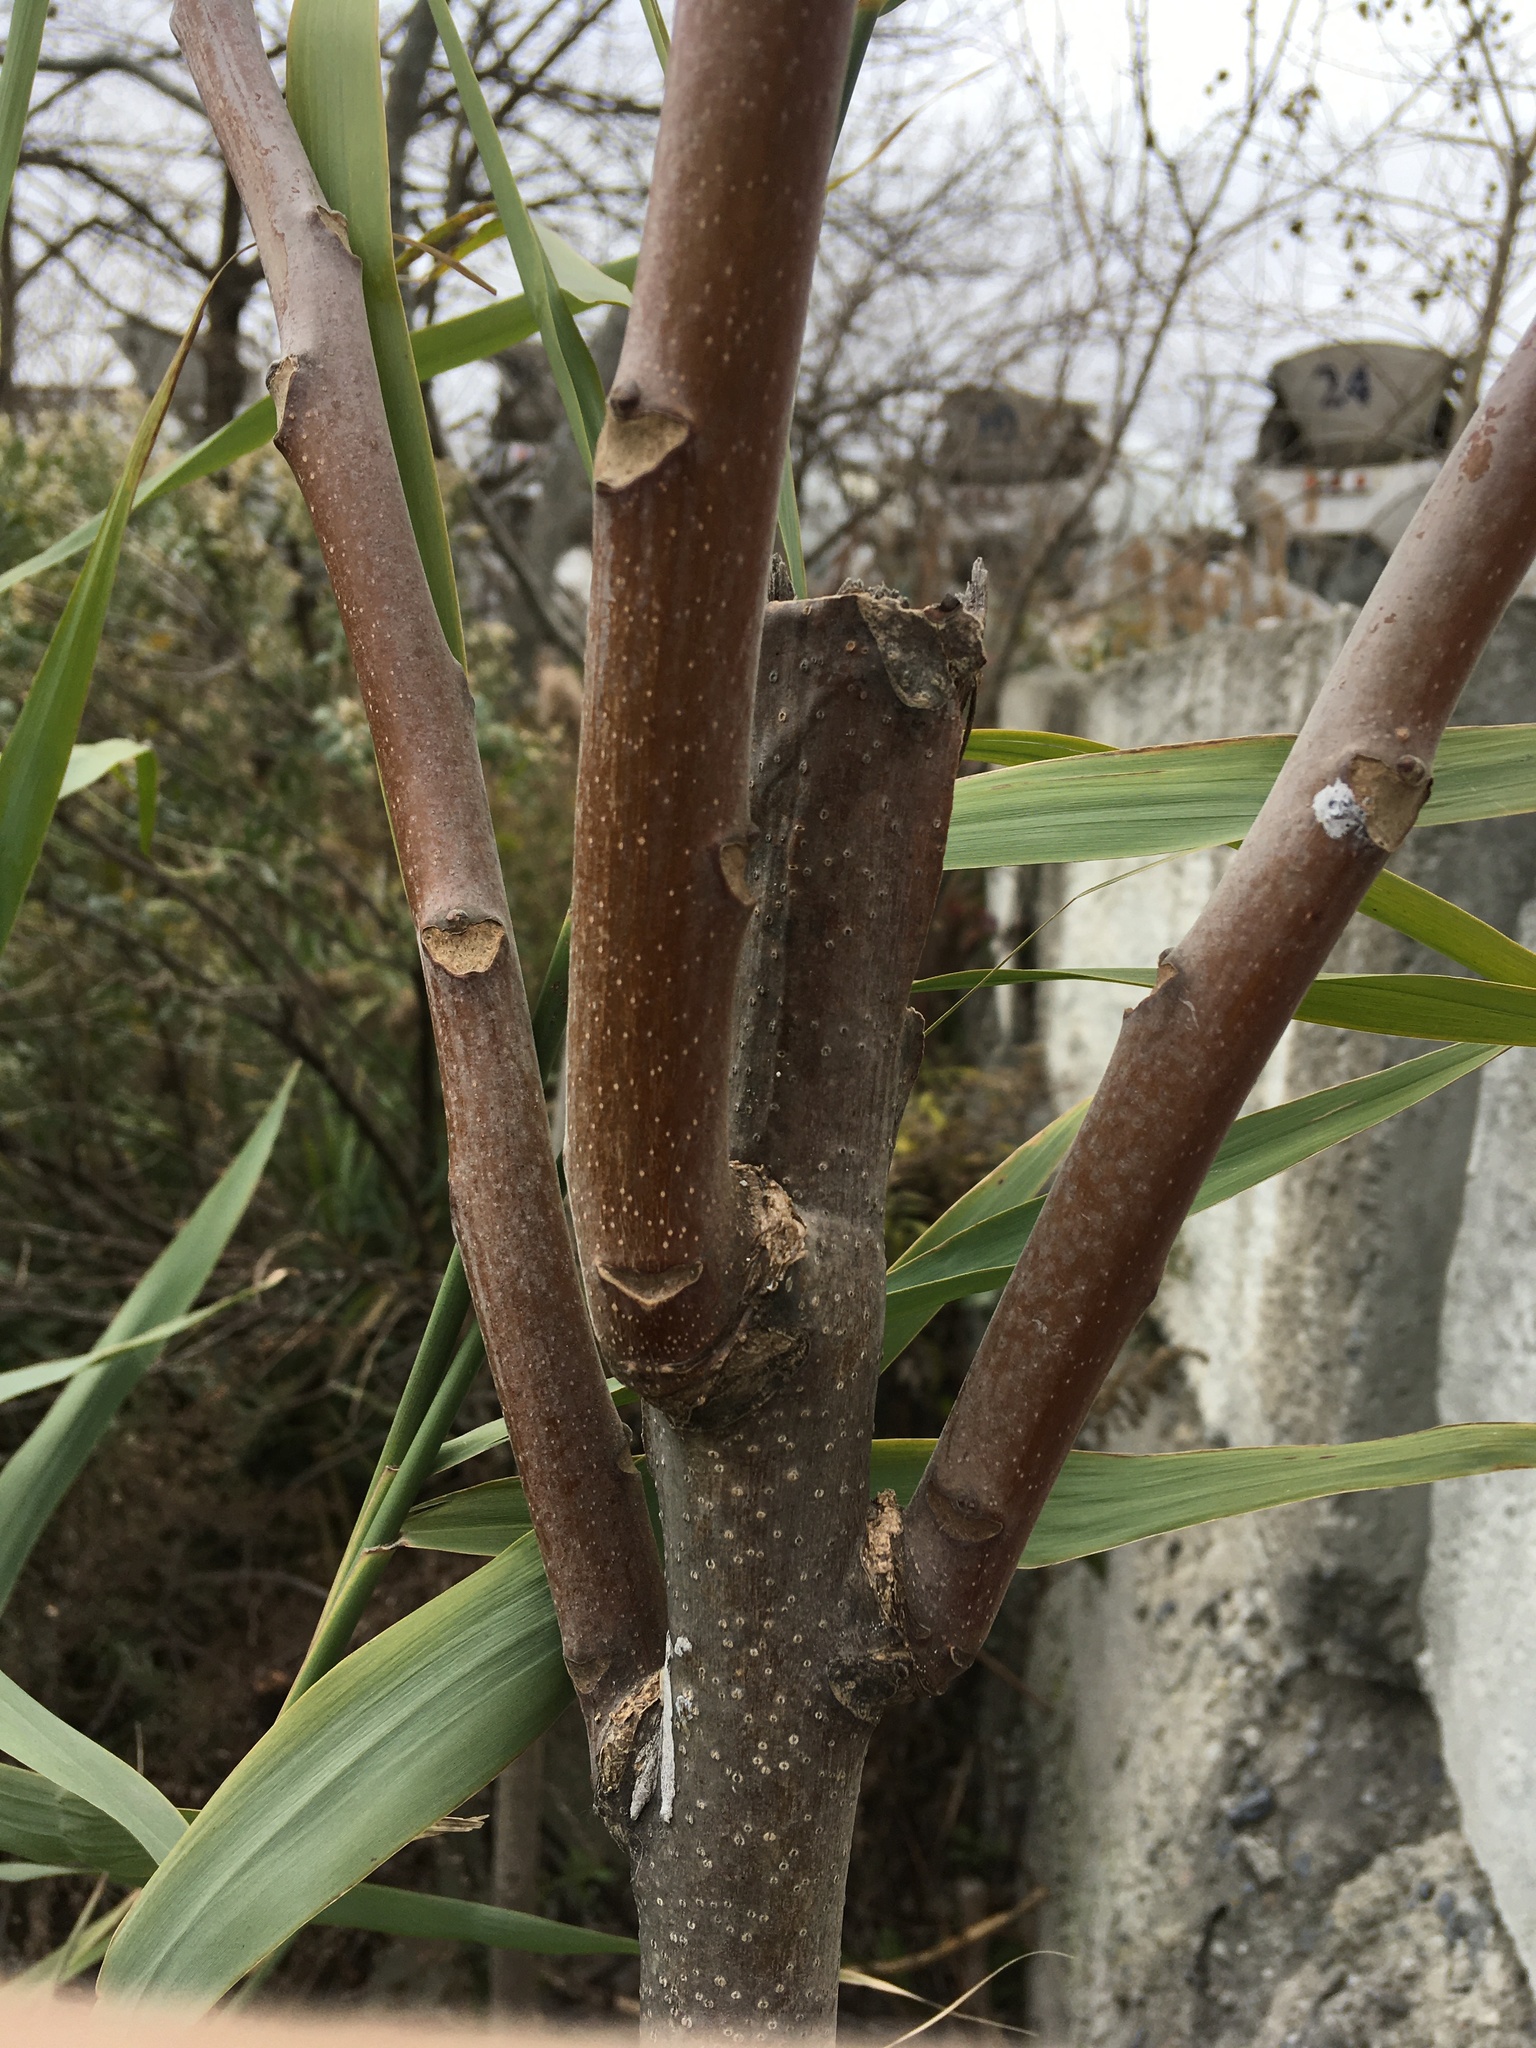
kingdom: Plantae
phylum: Tracheophyta
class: Magnoliopsida
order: Sapindales
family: Simaroubaceae
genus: Ailanthus
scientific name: Ailanthus altissima
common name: Tree-of-heaven
